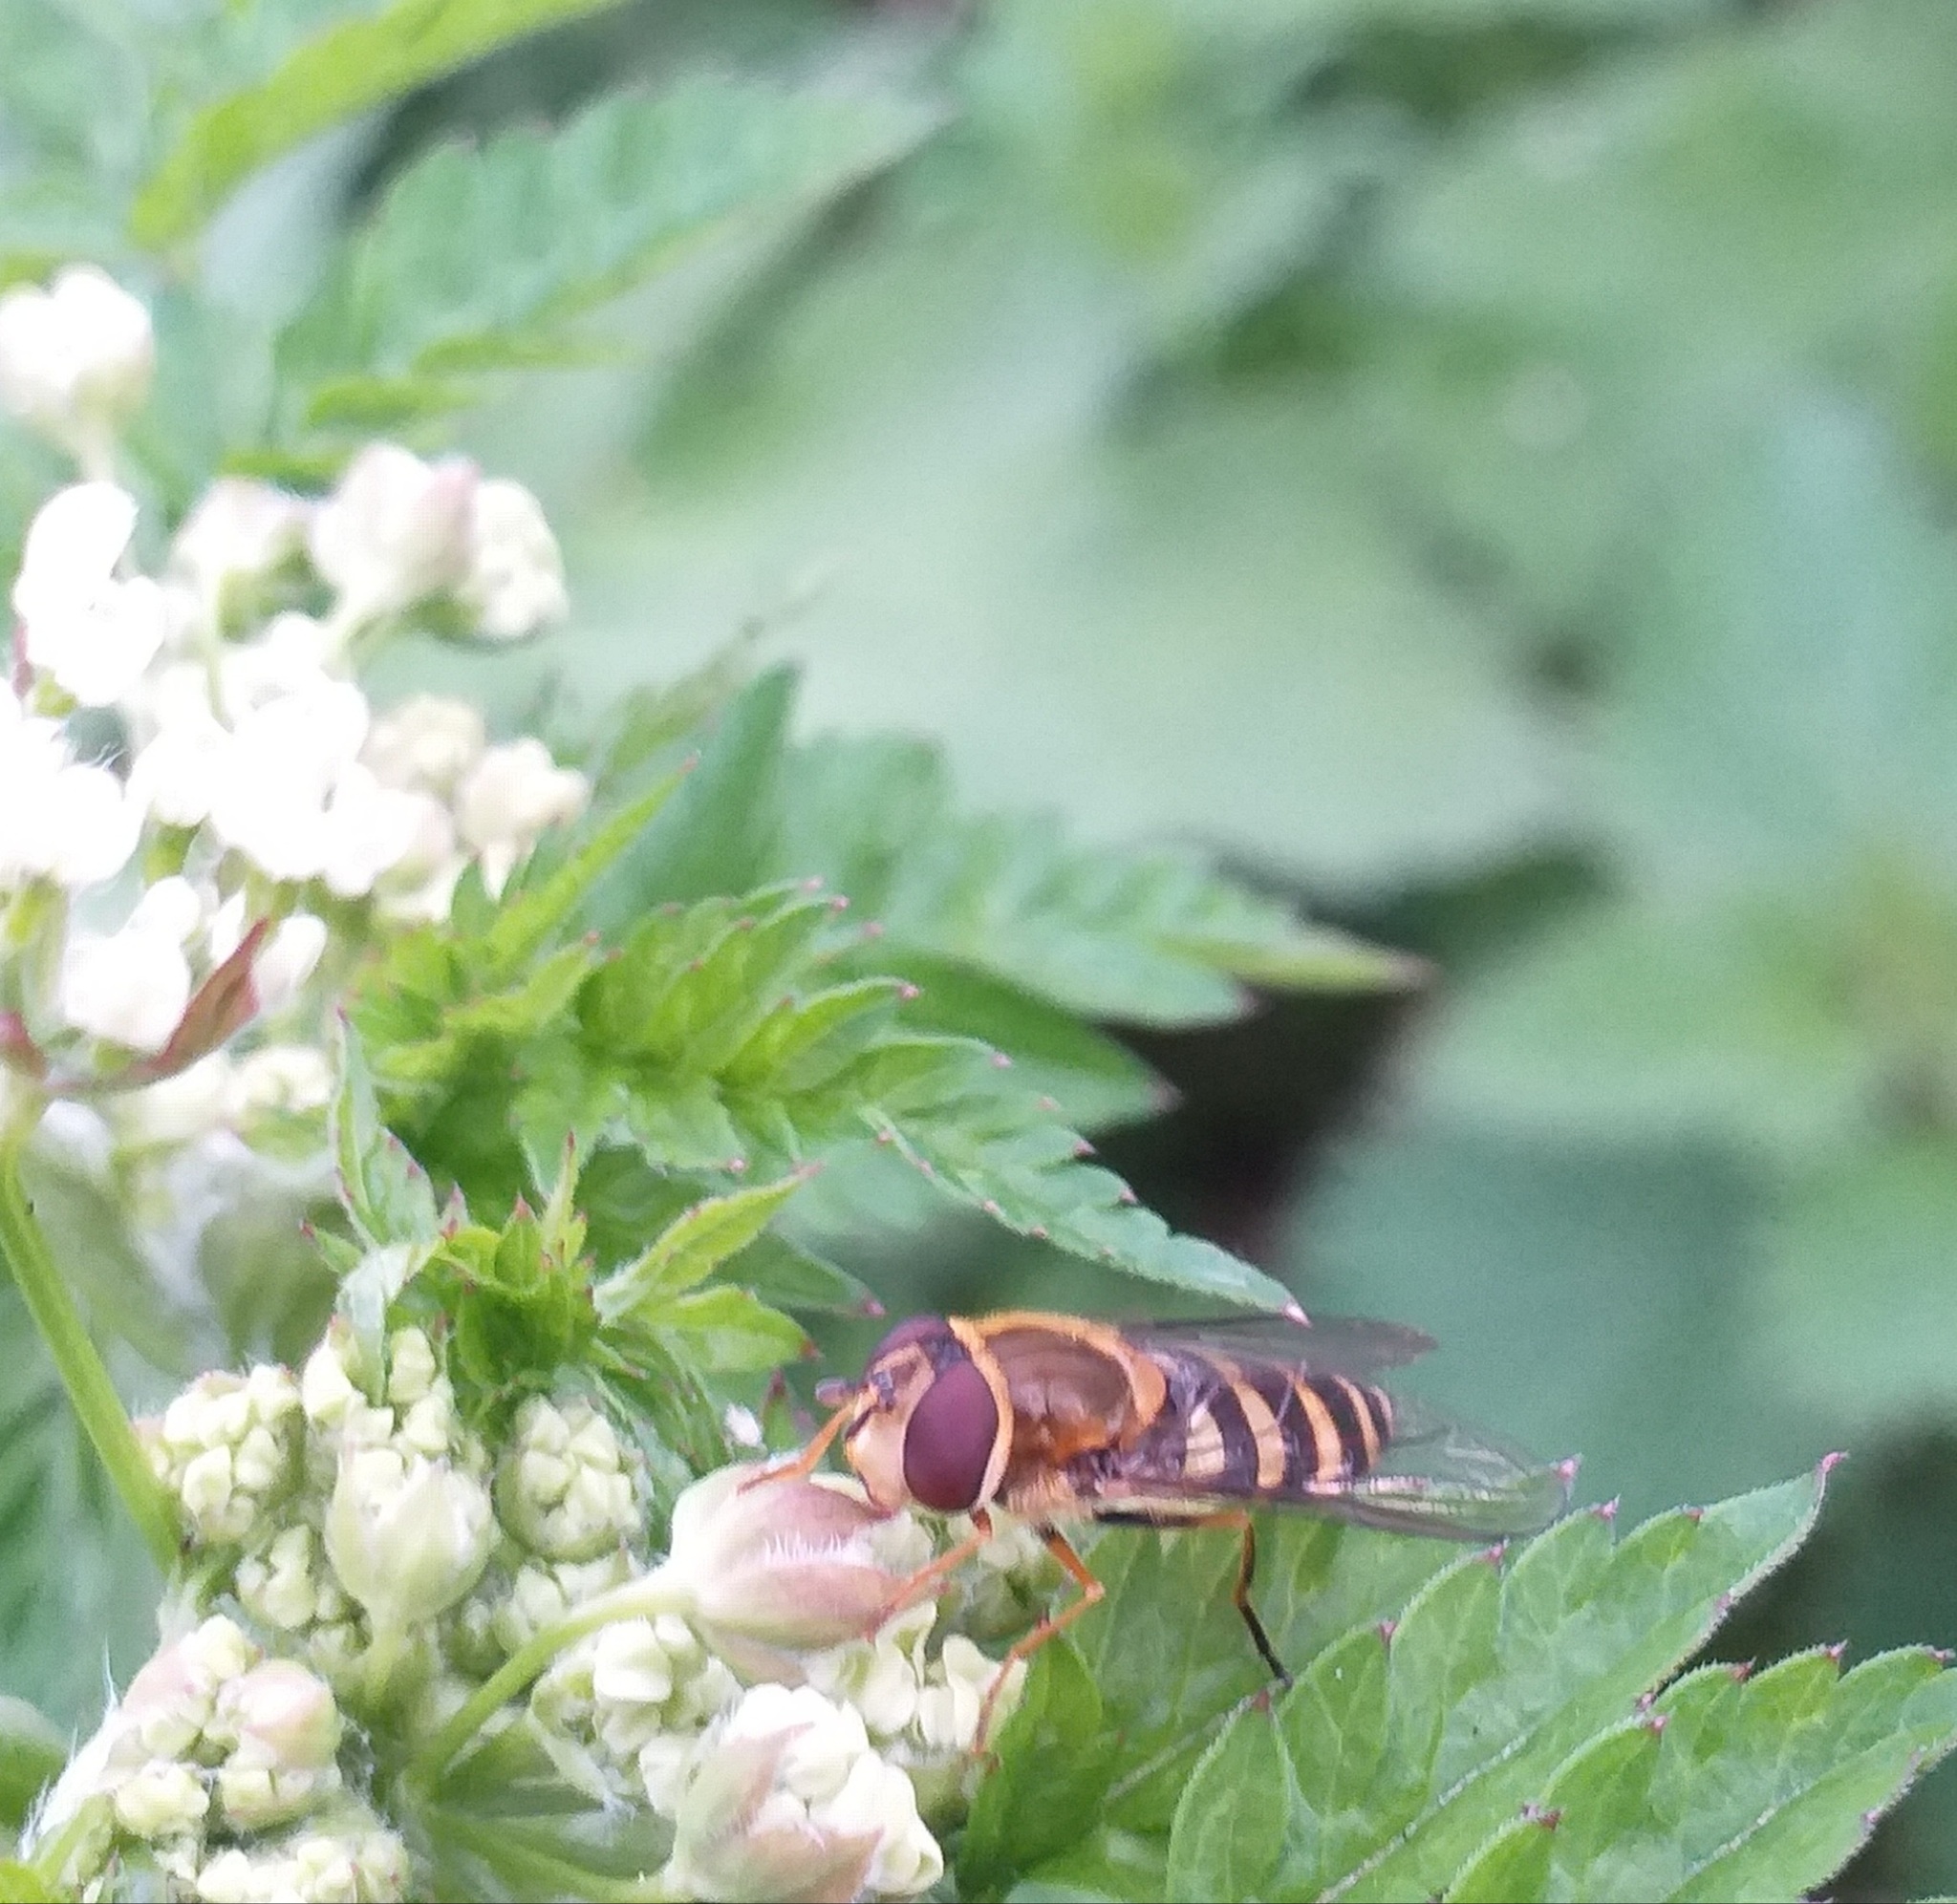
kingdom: Animalia
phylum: Arthropoda
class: Insecta
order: Diptera
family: Syrphidae
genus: Syrphus
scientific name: Syrphus
